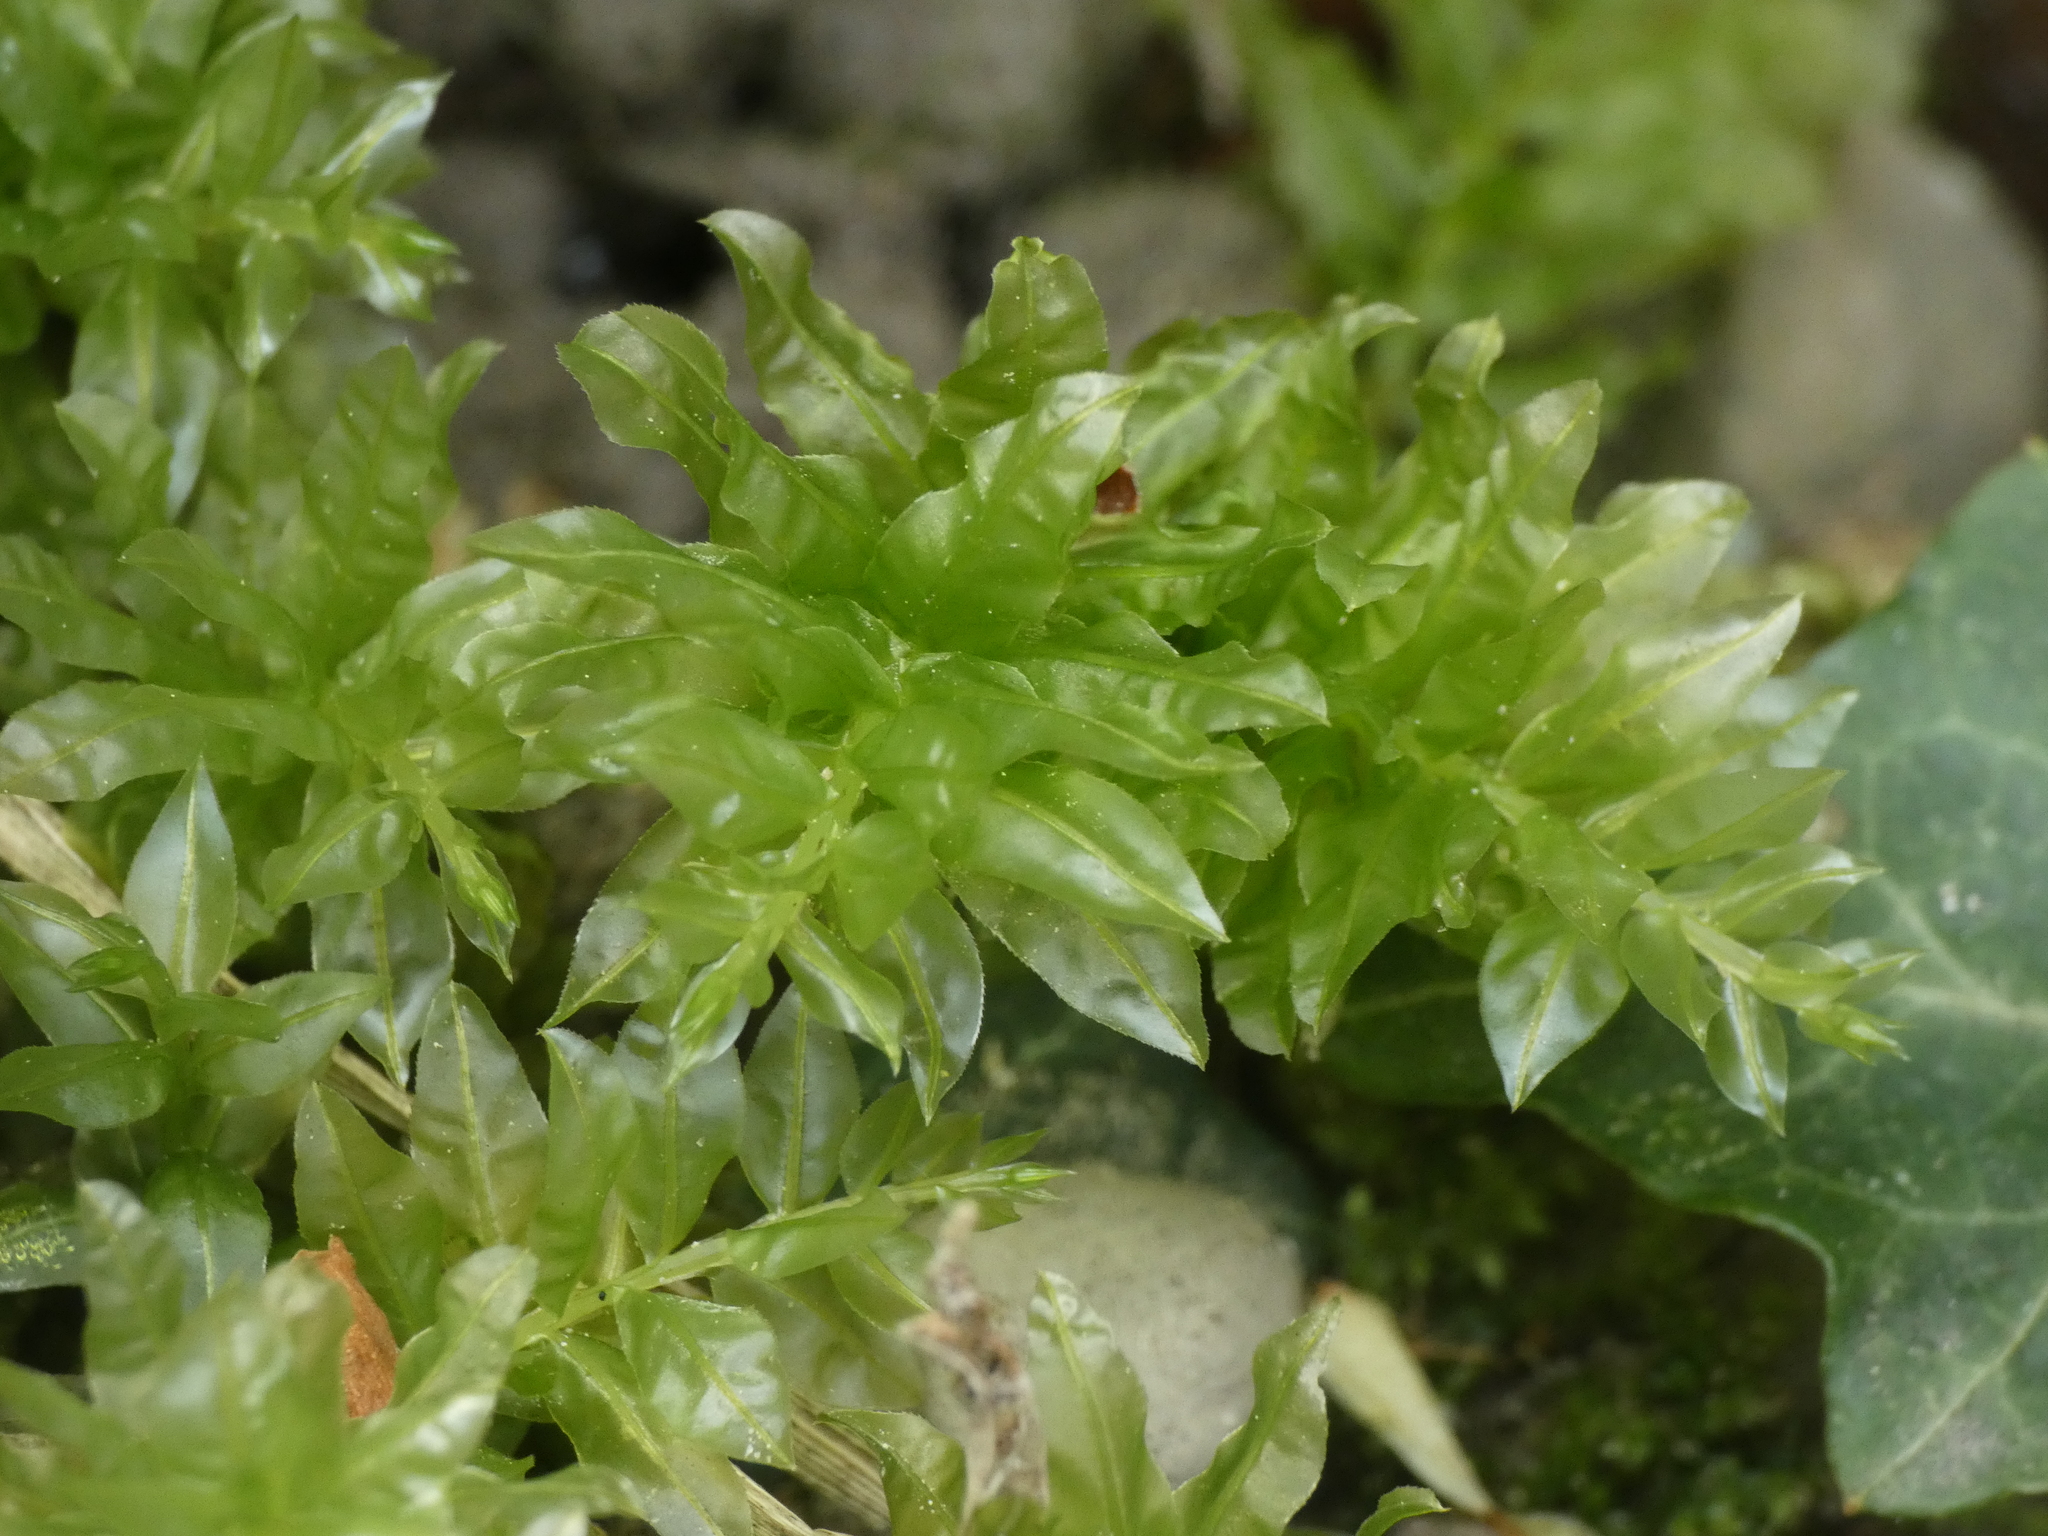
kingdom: Plantae
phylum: Bryophyta
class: Bryopsida
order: Bryales
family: Mniaceae
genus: Plagiomnium
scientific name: Plagiomnium undulatum
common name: Hart's-tongue thyme-moss
